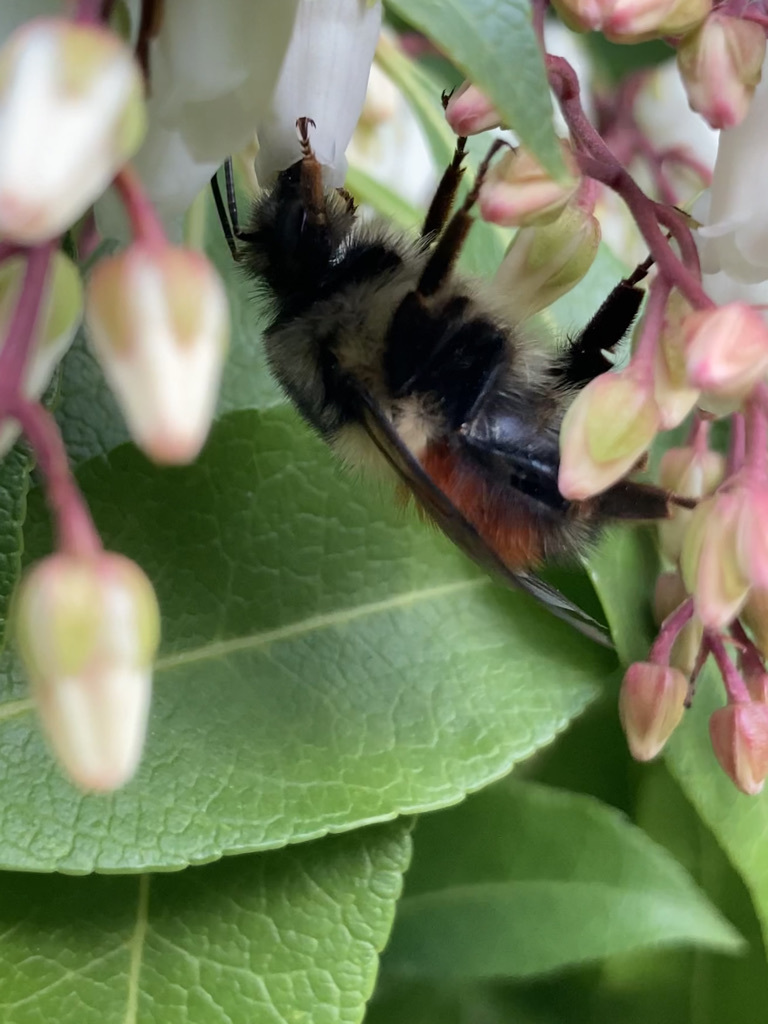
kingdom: Animalia
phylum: Arthropoda
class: Insecta
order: Hymenoptera
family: Apidae
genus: Bombus
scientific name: Bombus melanopygus
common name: Black tail bumble bee
